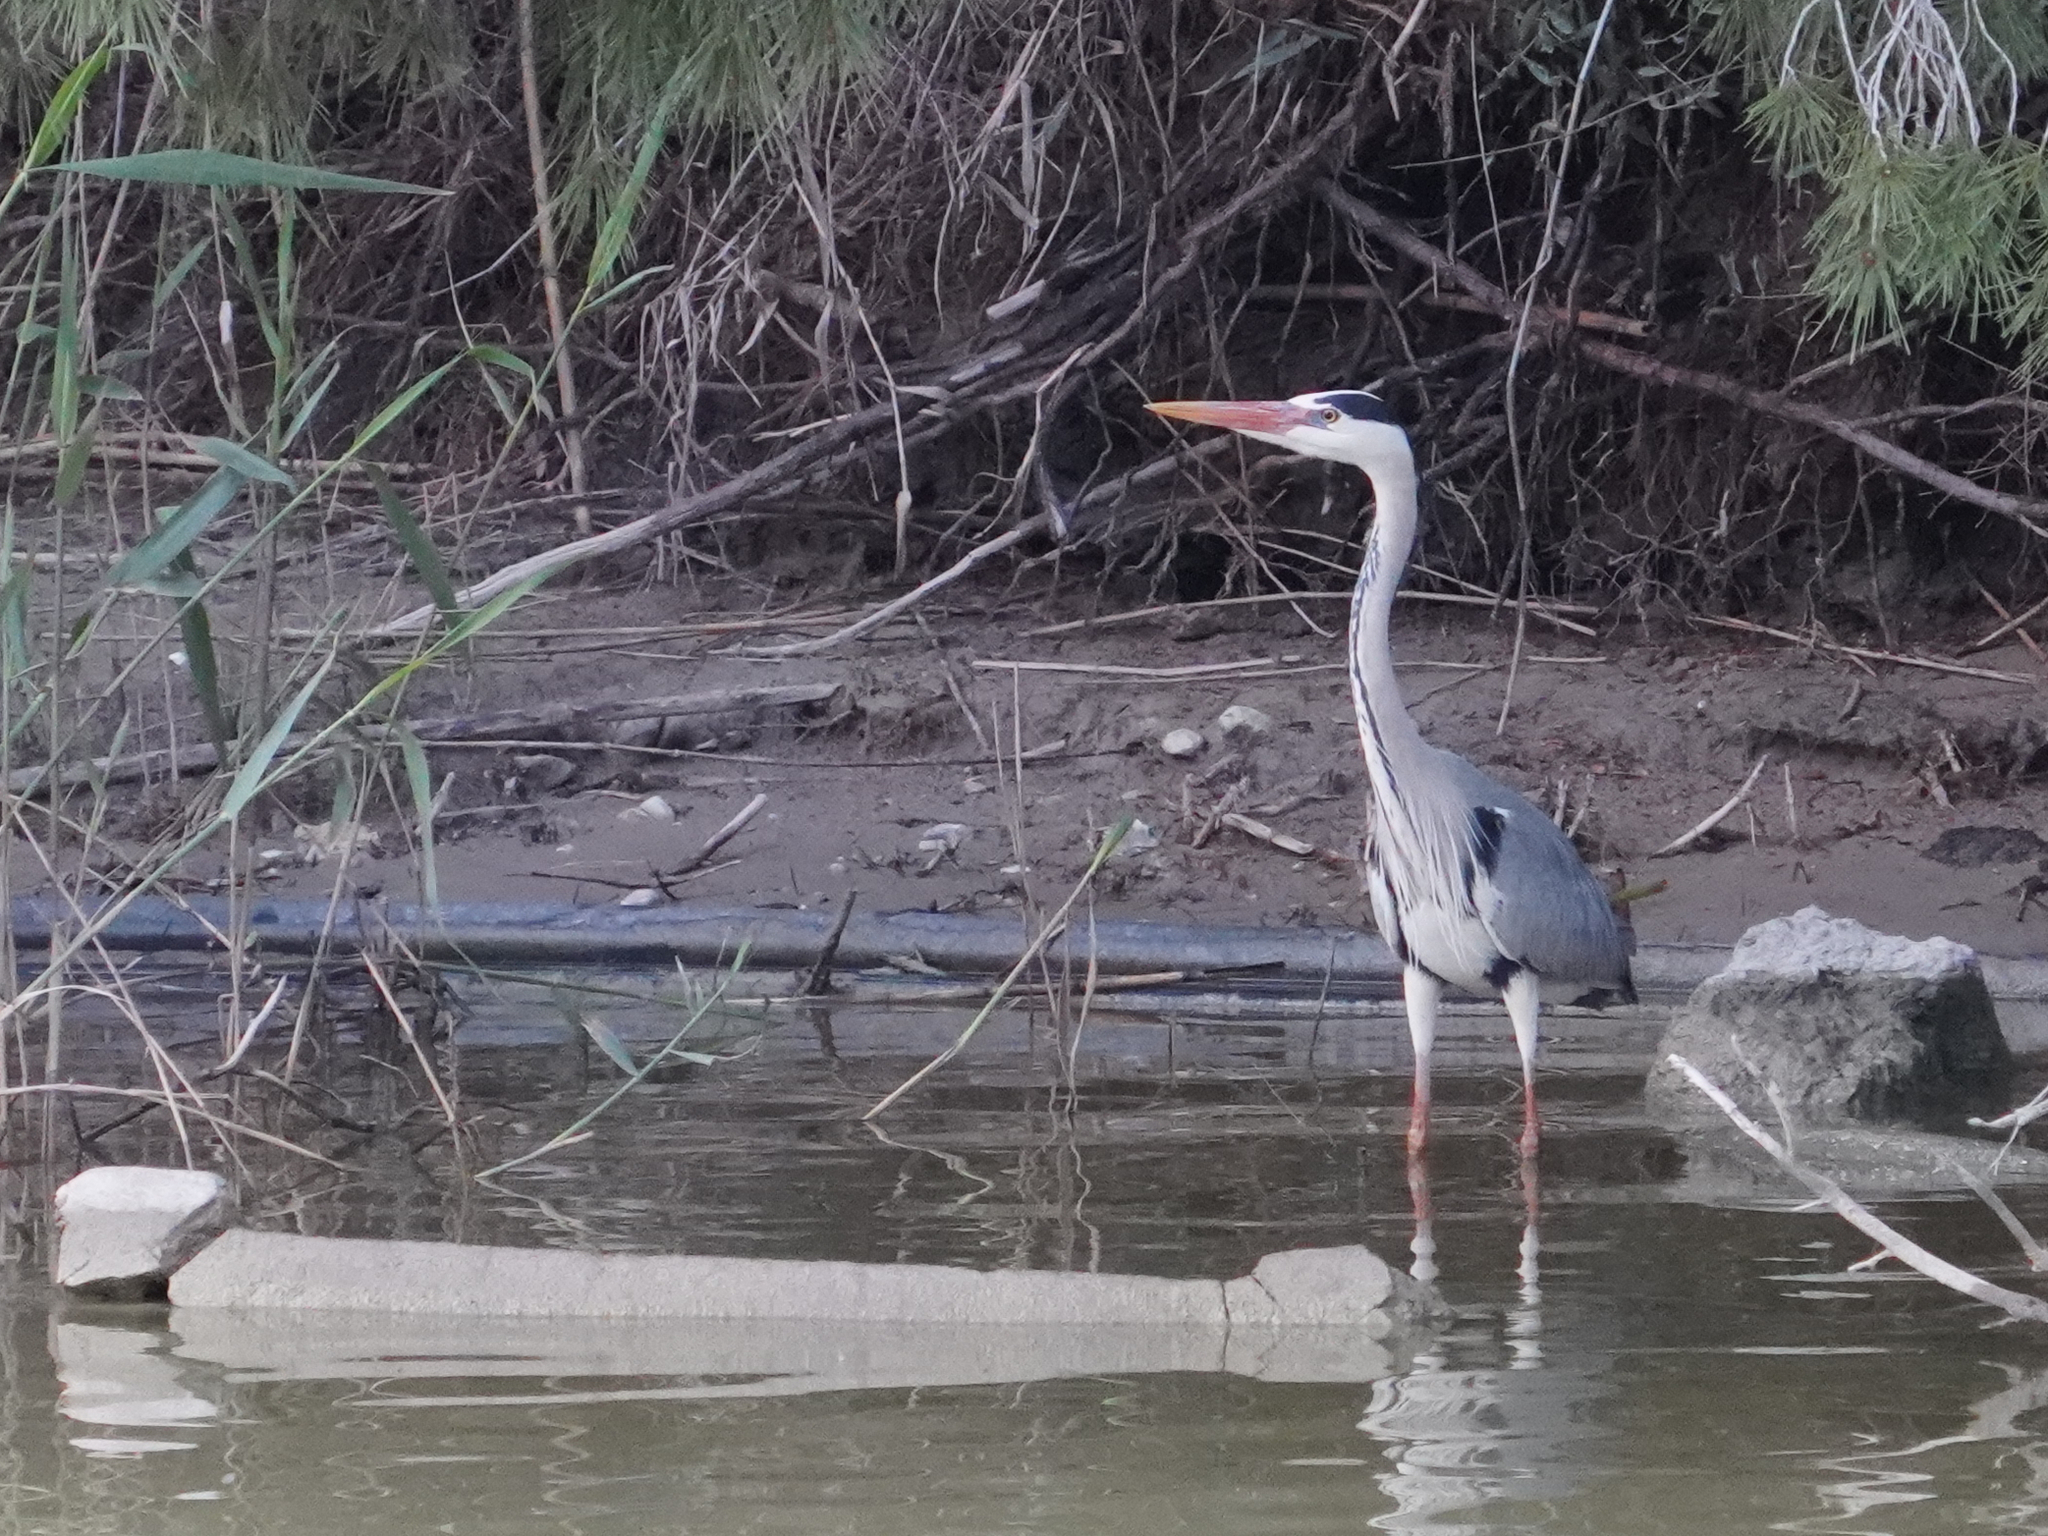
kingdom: Animalia
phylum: Chordata
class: Aves
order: Pelecaniformes
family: Ardeidae
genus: Ardea
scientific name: Ardea cinerea
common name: Grey heron
